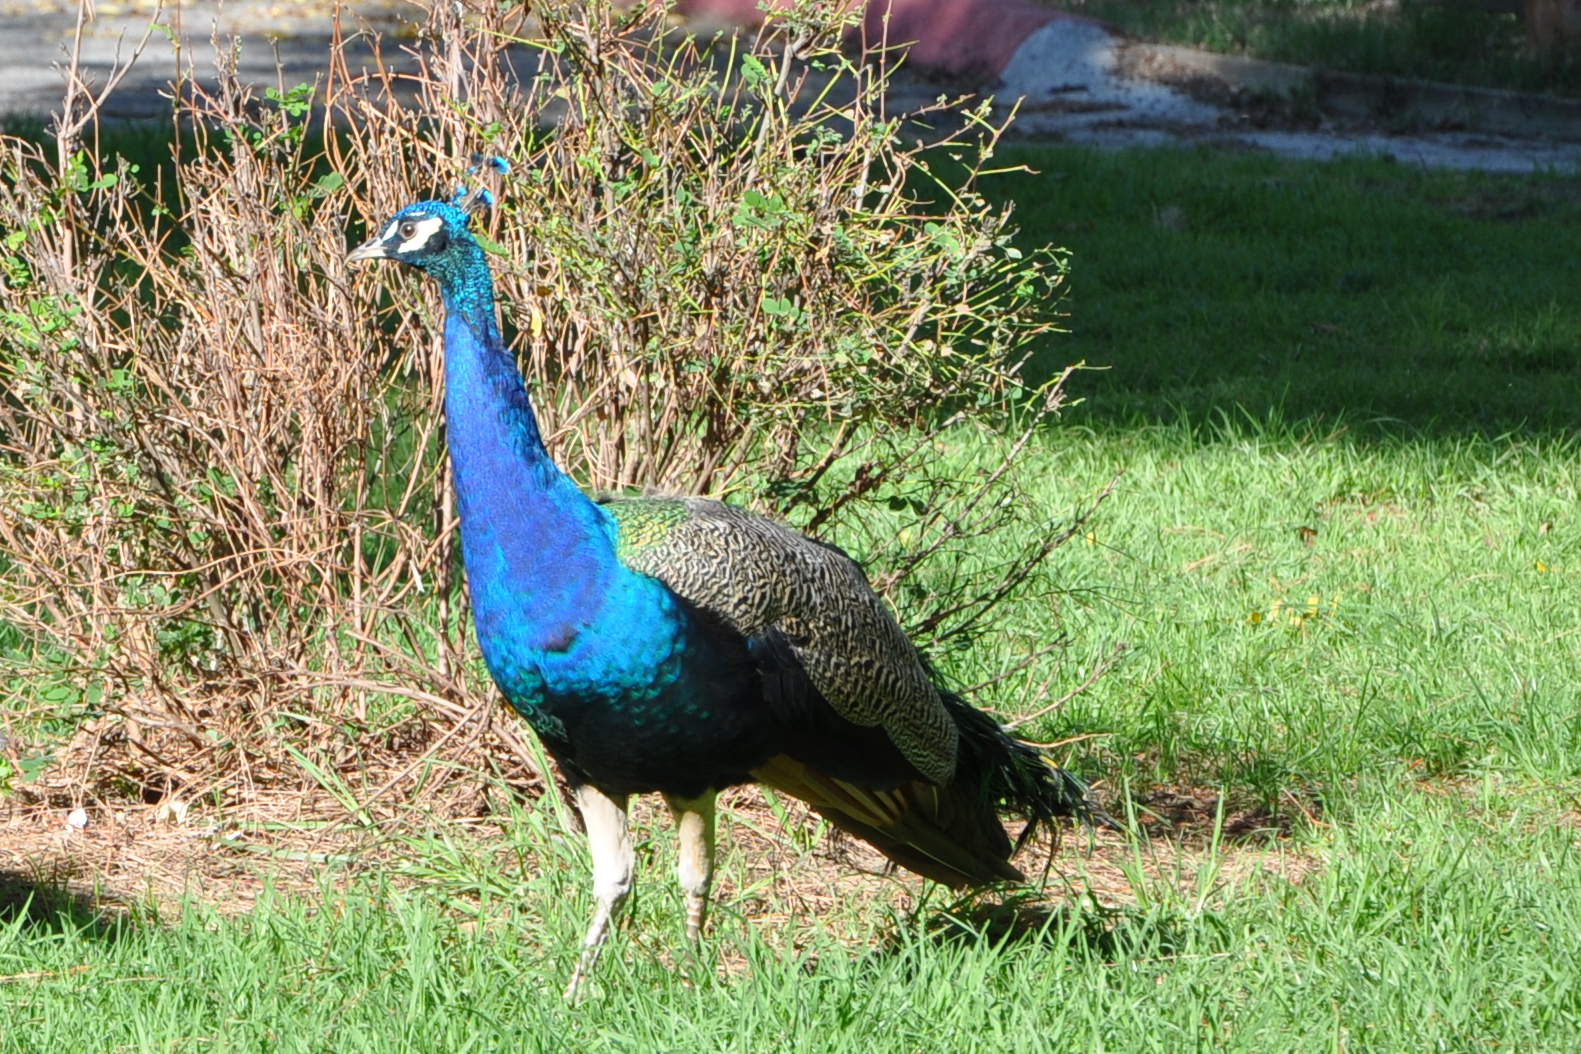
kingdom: Animalia
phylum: Chordata
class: Aves
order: Galliformes
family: Phasianidae
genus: Pavo
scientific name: Pavo cristatus
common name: Indian peafowl
